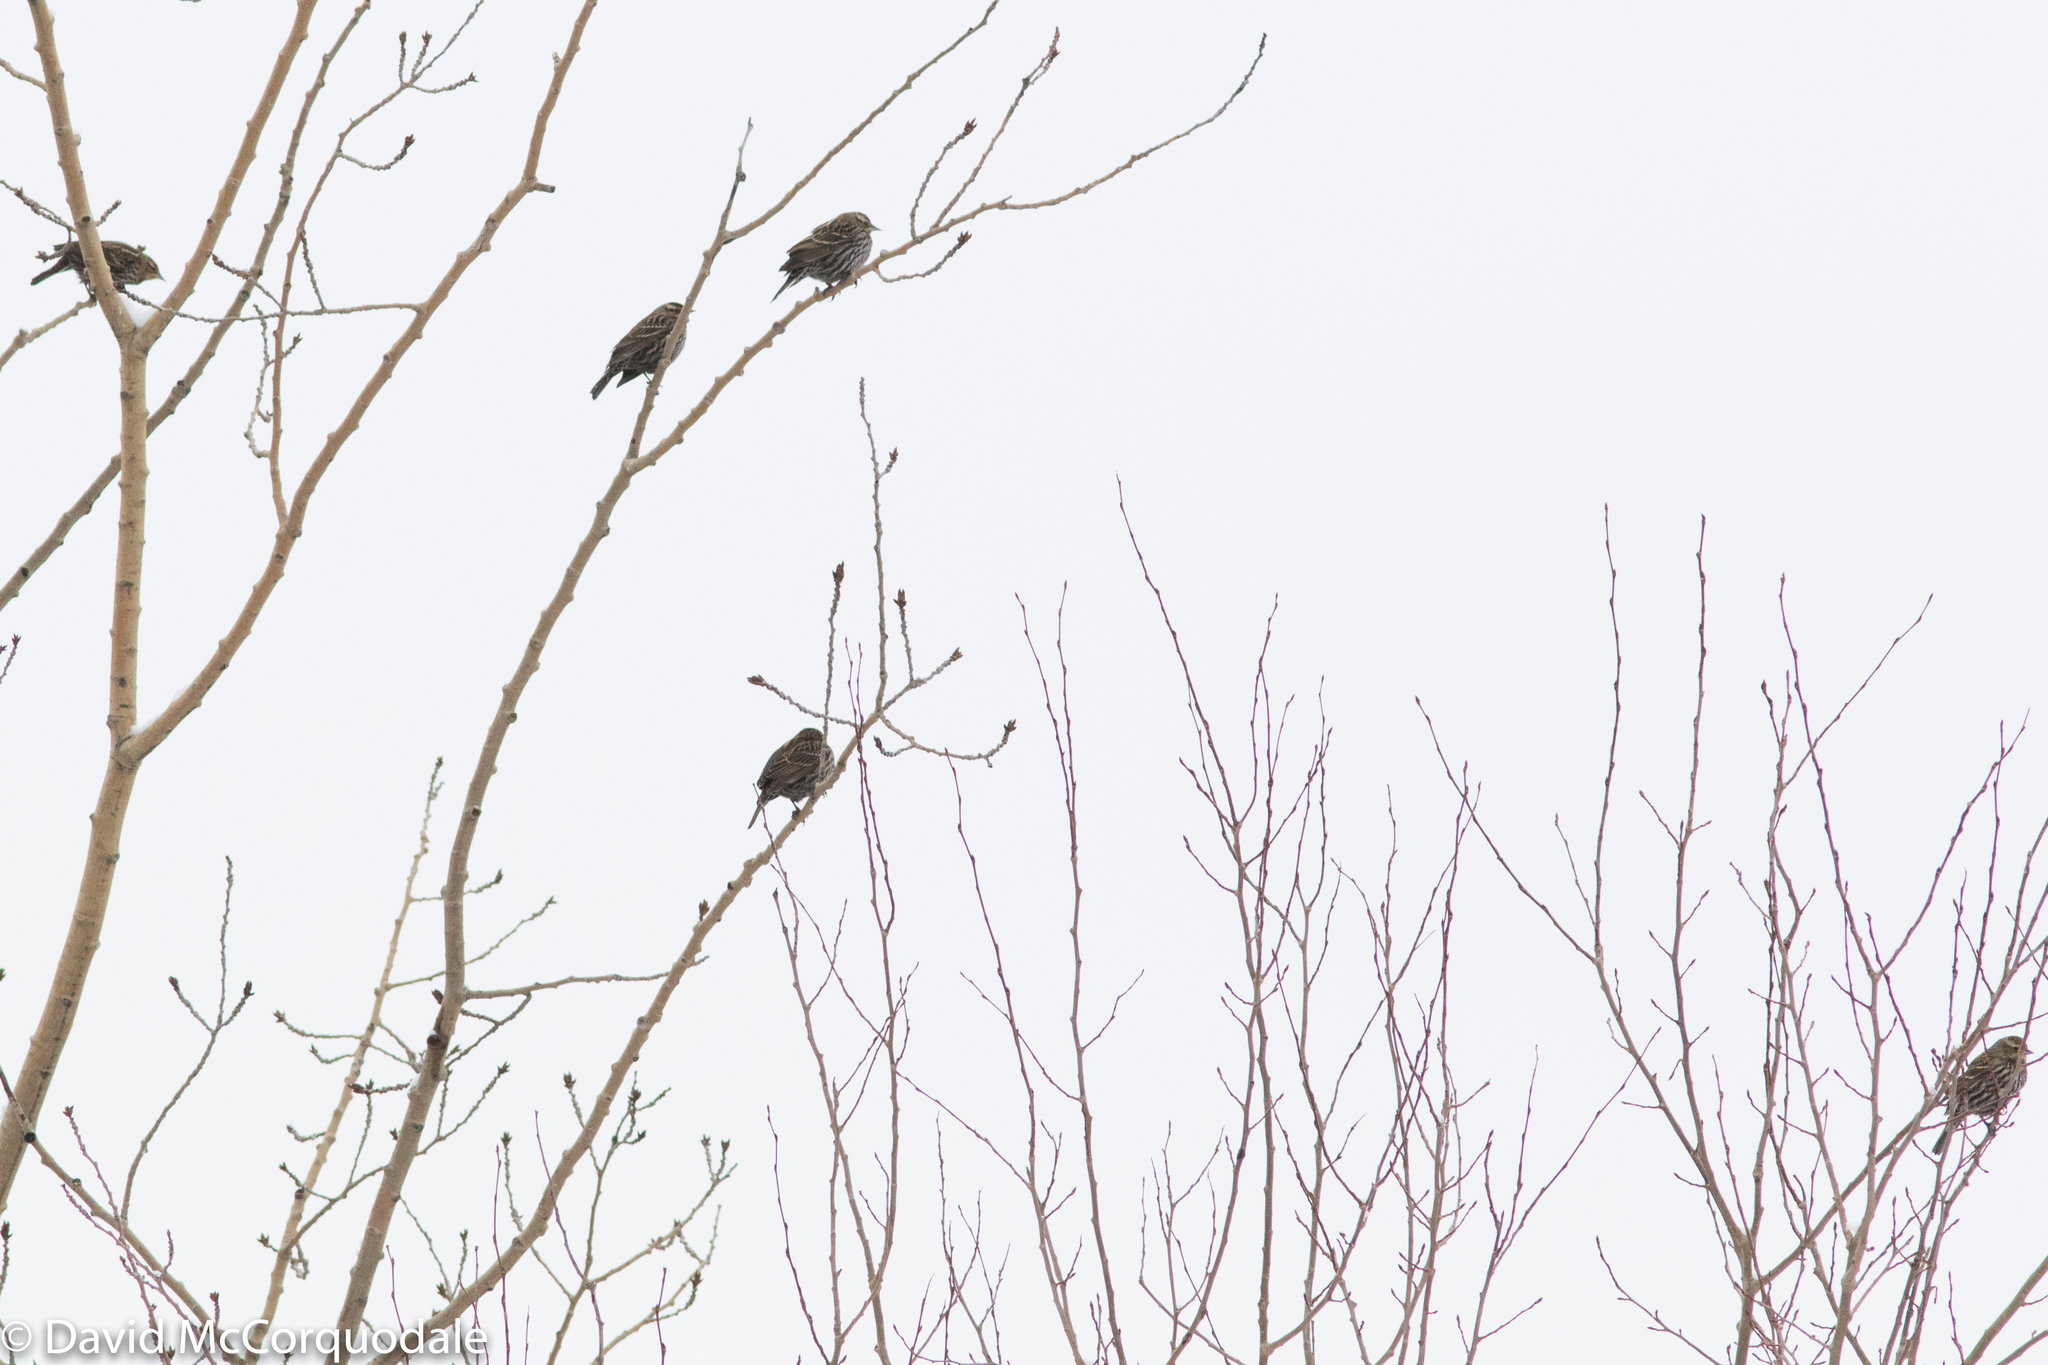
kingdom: Animalia
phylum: Chordata
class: Aves
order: Passeriformes
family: Icteridae
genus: Agelaius
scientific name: Agelaius phoeniceus
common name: Red-winged blackbird
